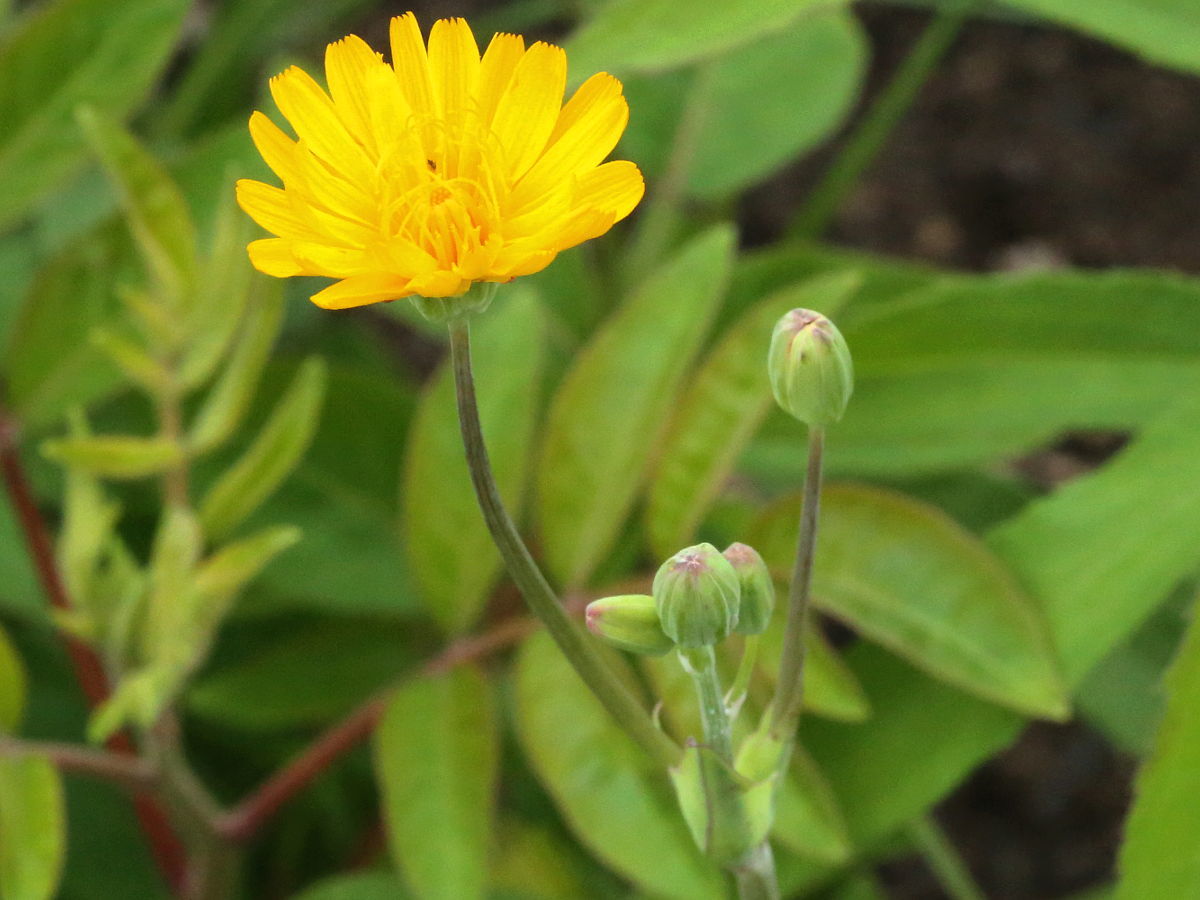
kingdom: Plantae
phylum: Tracheophyta
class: Magnoliopsida
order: Asterales
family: Asteraceae
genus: Krigia
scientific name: Krigia biflora
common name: Orange dwarf-dandelion
